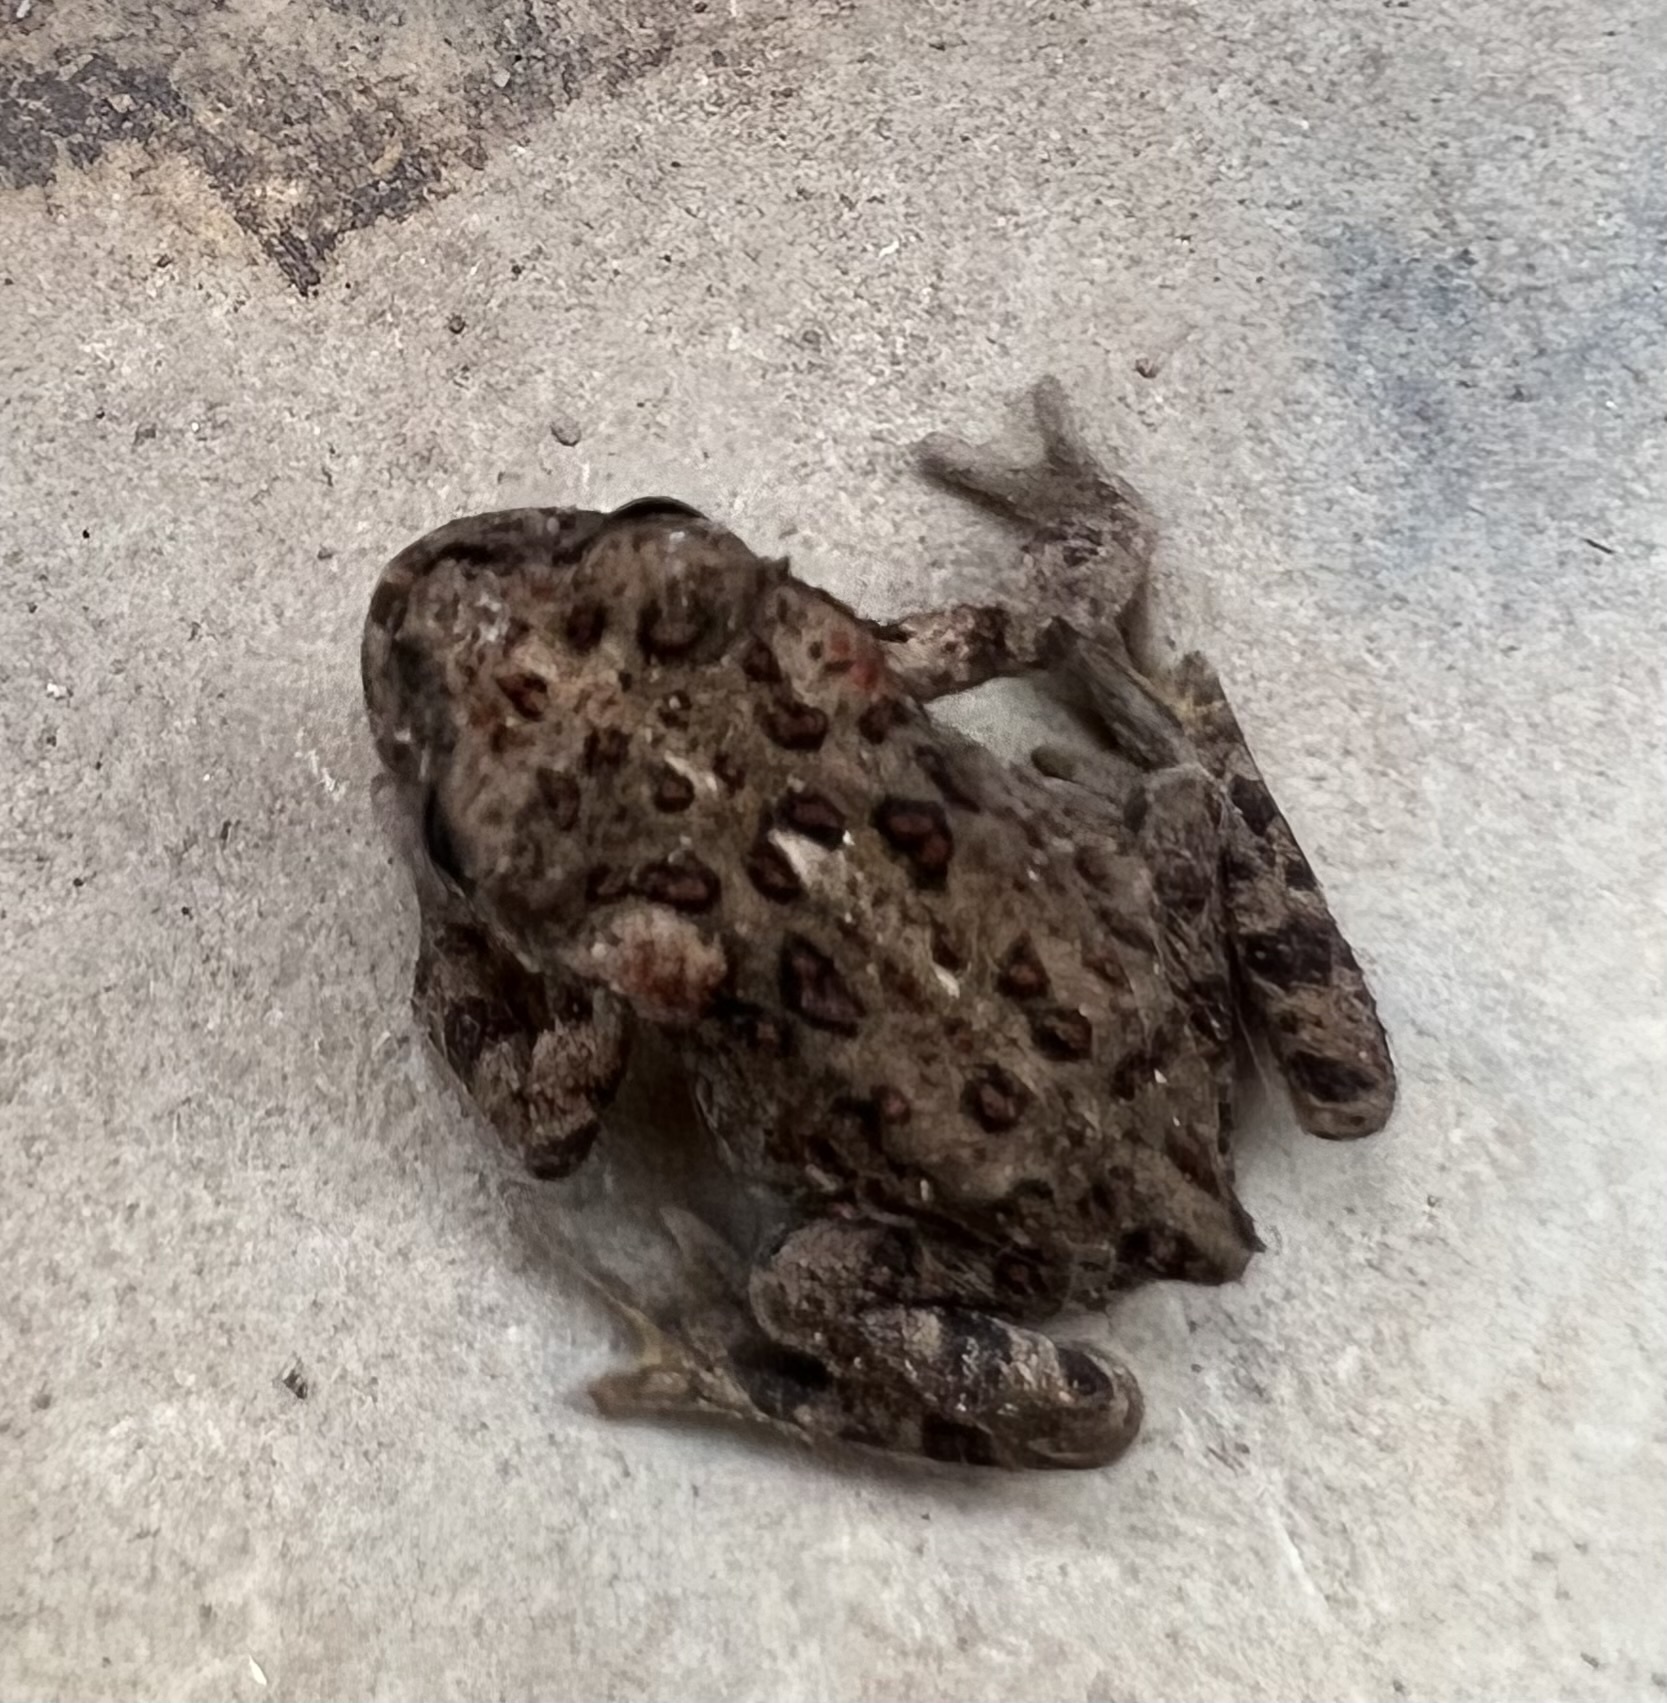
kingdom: Animalia
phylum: Chordata
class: Amphibia
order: Anura
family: Bufonidae
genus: Anaxyrus
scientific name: Anaxyrus boreas
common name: Western toad
